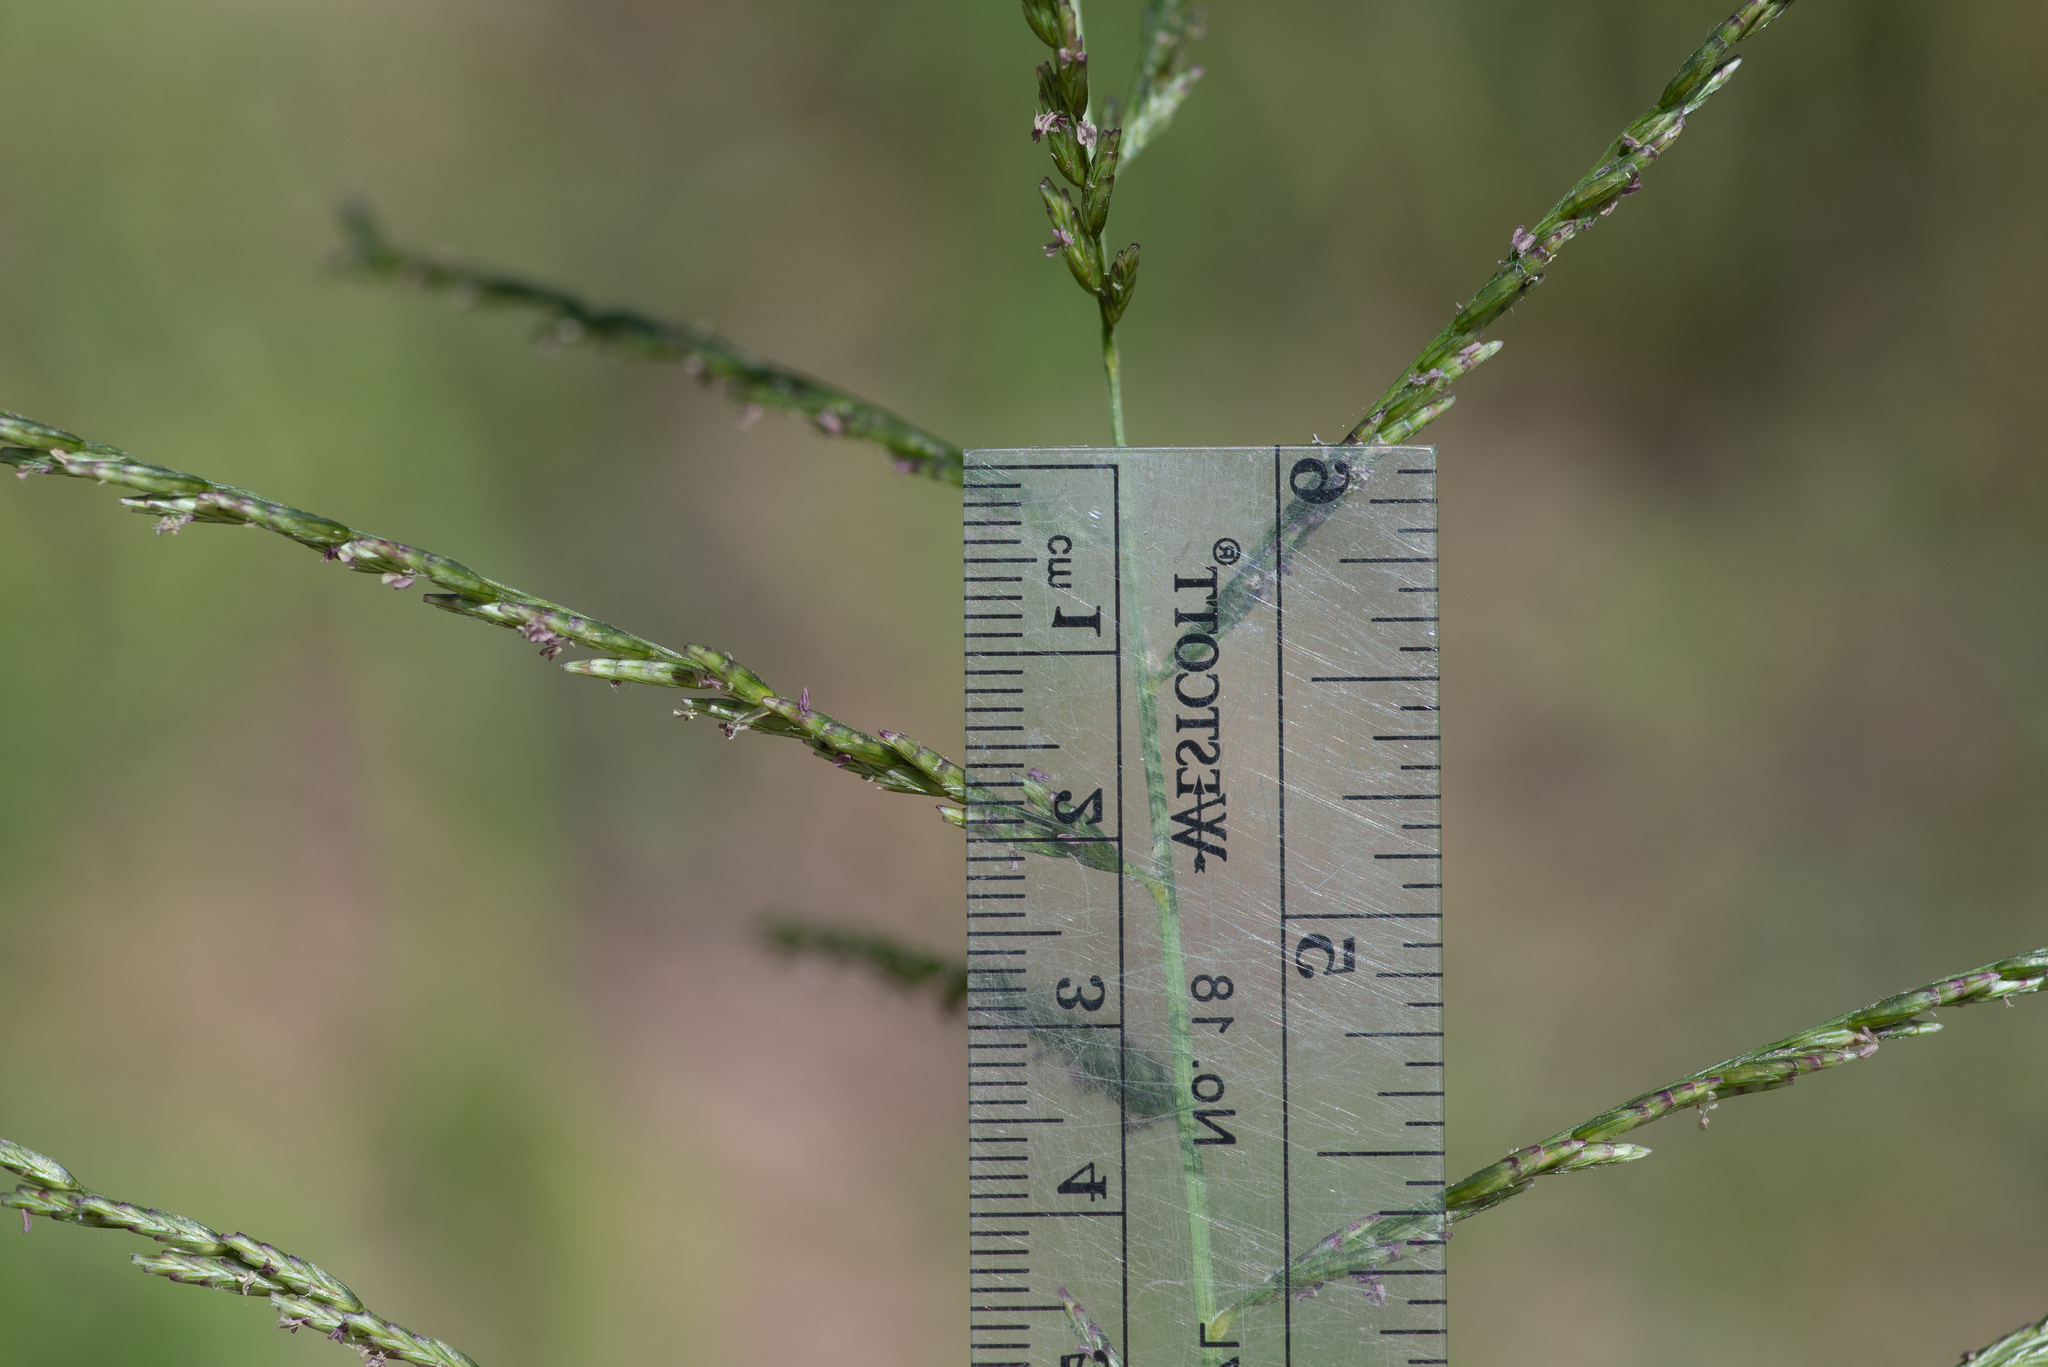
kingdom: Plantae
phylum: Tracheophyta
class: Liliopsida
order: Poales
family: Poaceae
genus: Disakisperma
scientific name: Disakisperma dubium
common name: Green sprangletop
